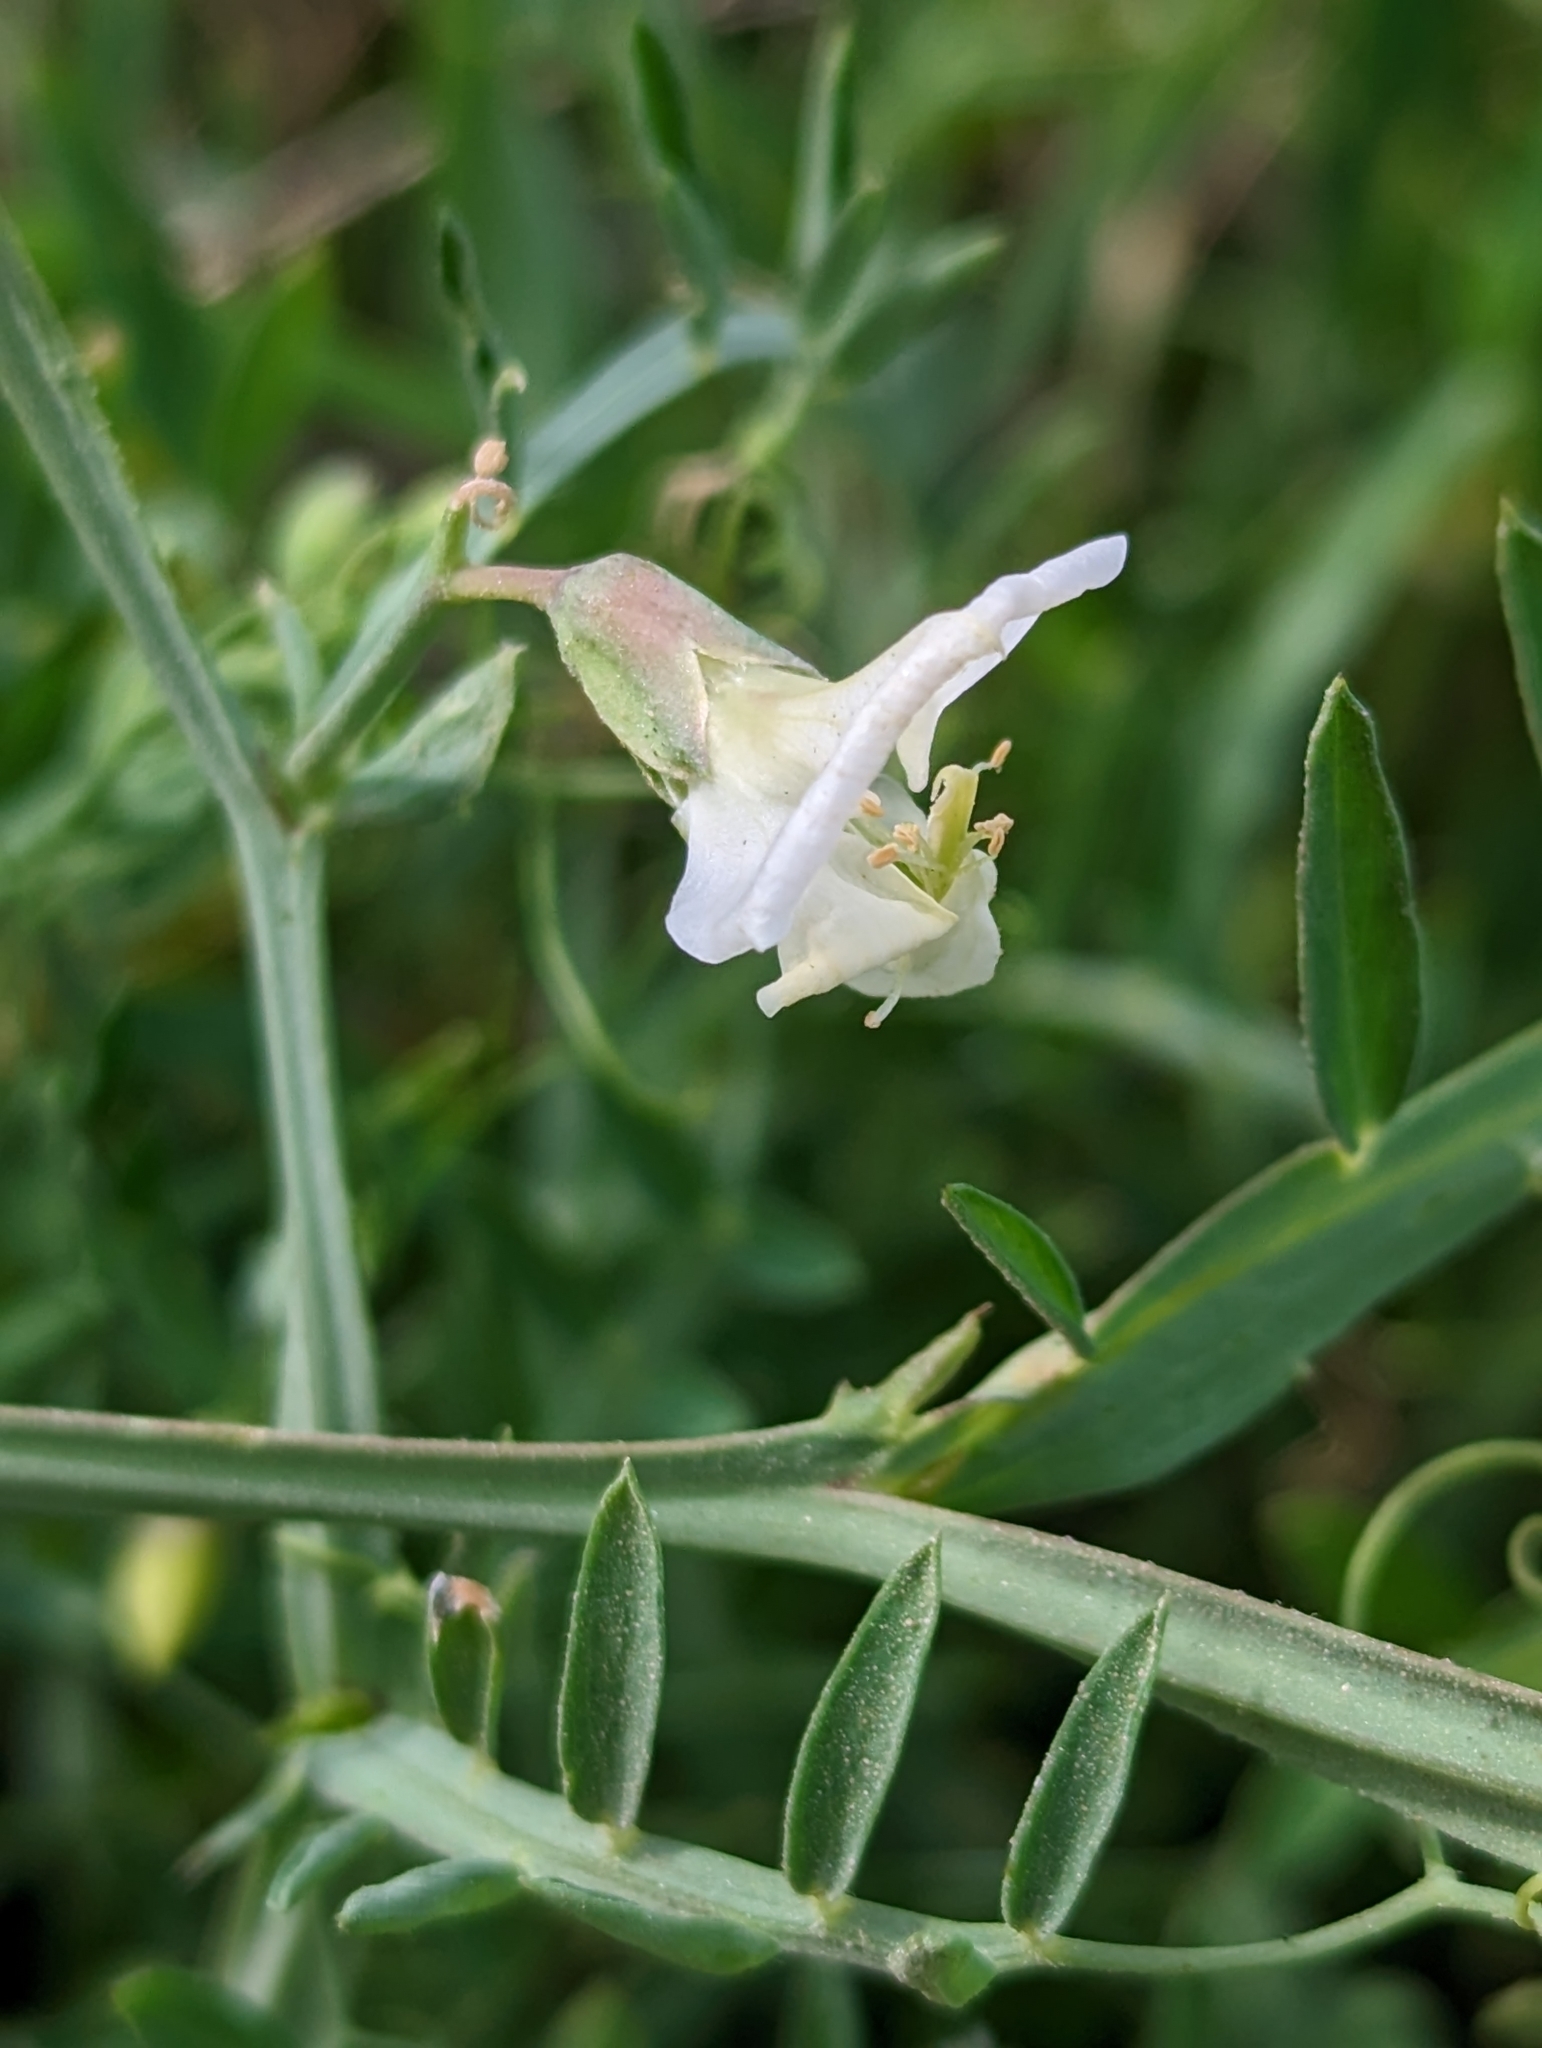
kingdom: Plantae
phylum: Tracheophyta
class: Magnoliopsida
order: Fabales
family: Fabaceae
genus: Lathyrus
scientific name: Lathyrus clymenum
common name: Spanish vetchling
